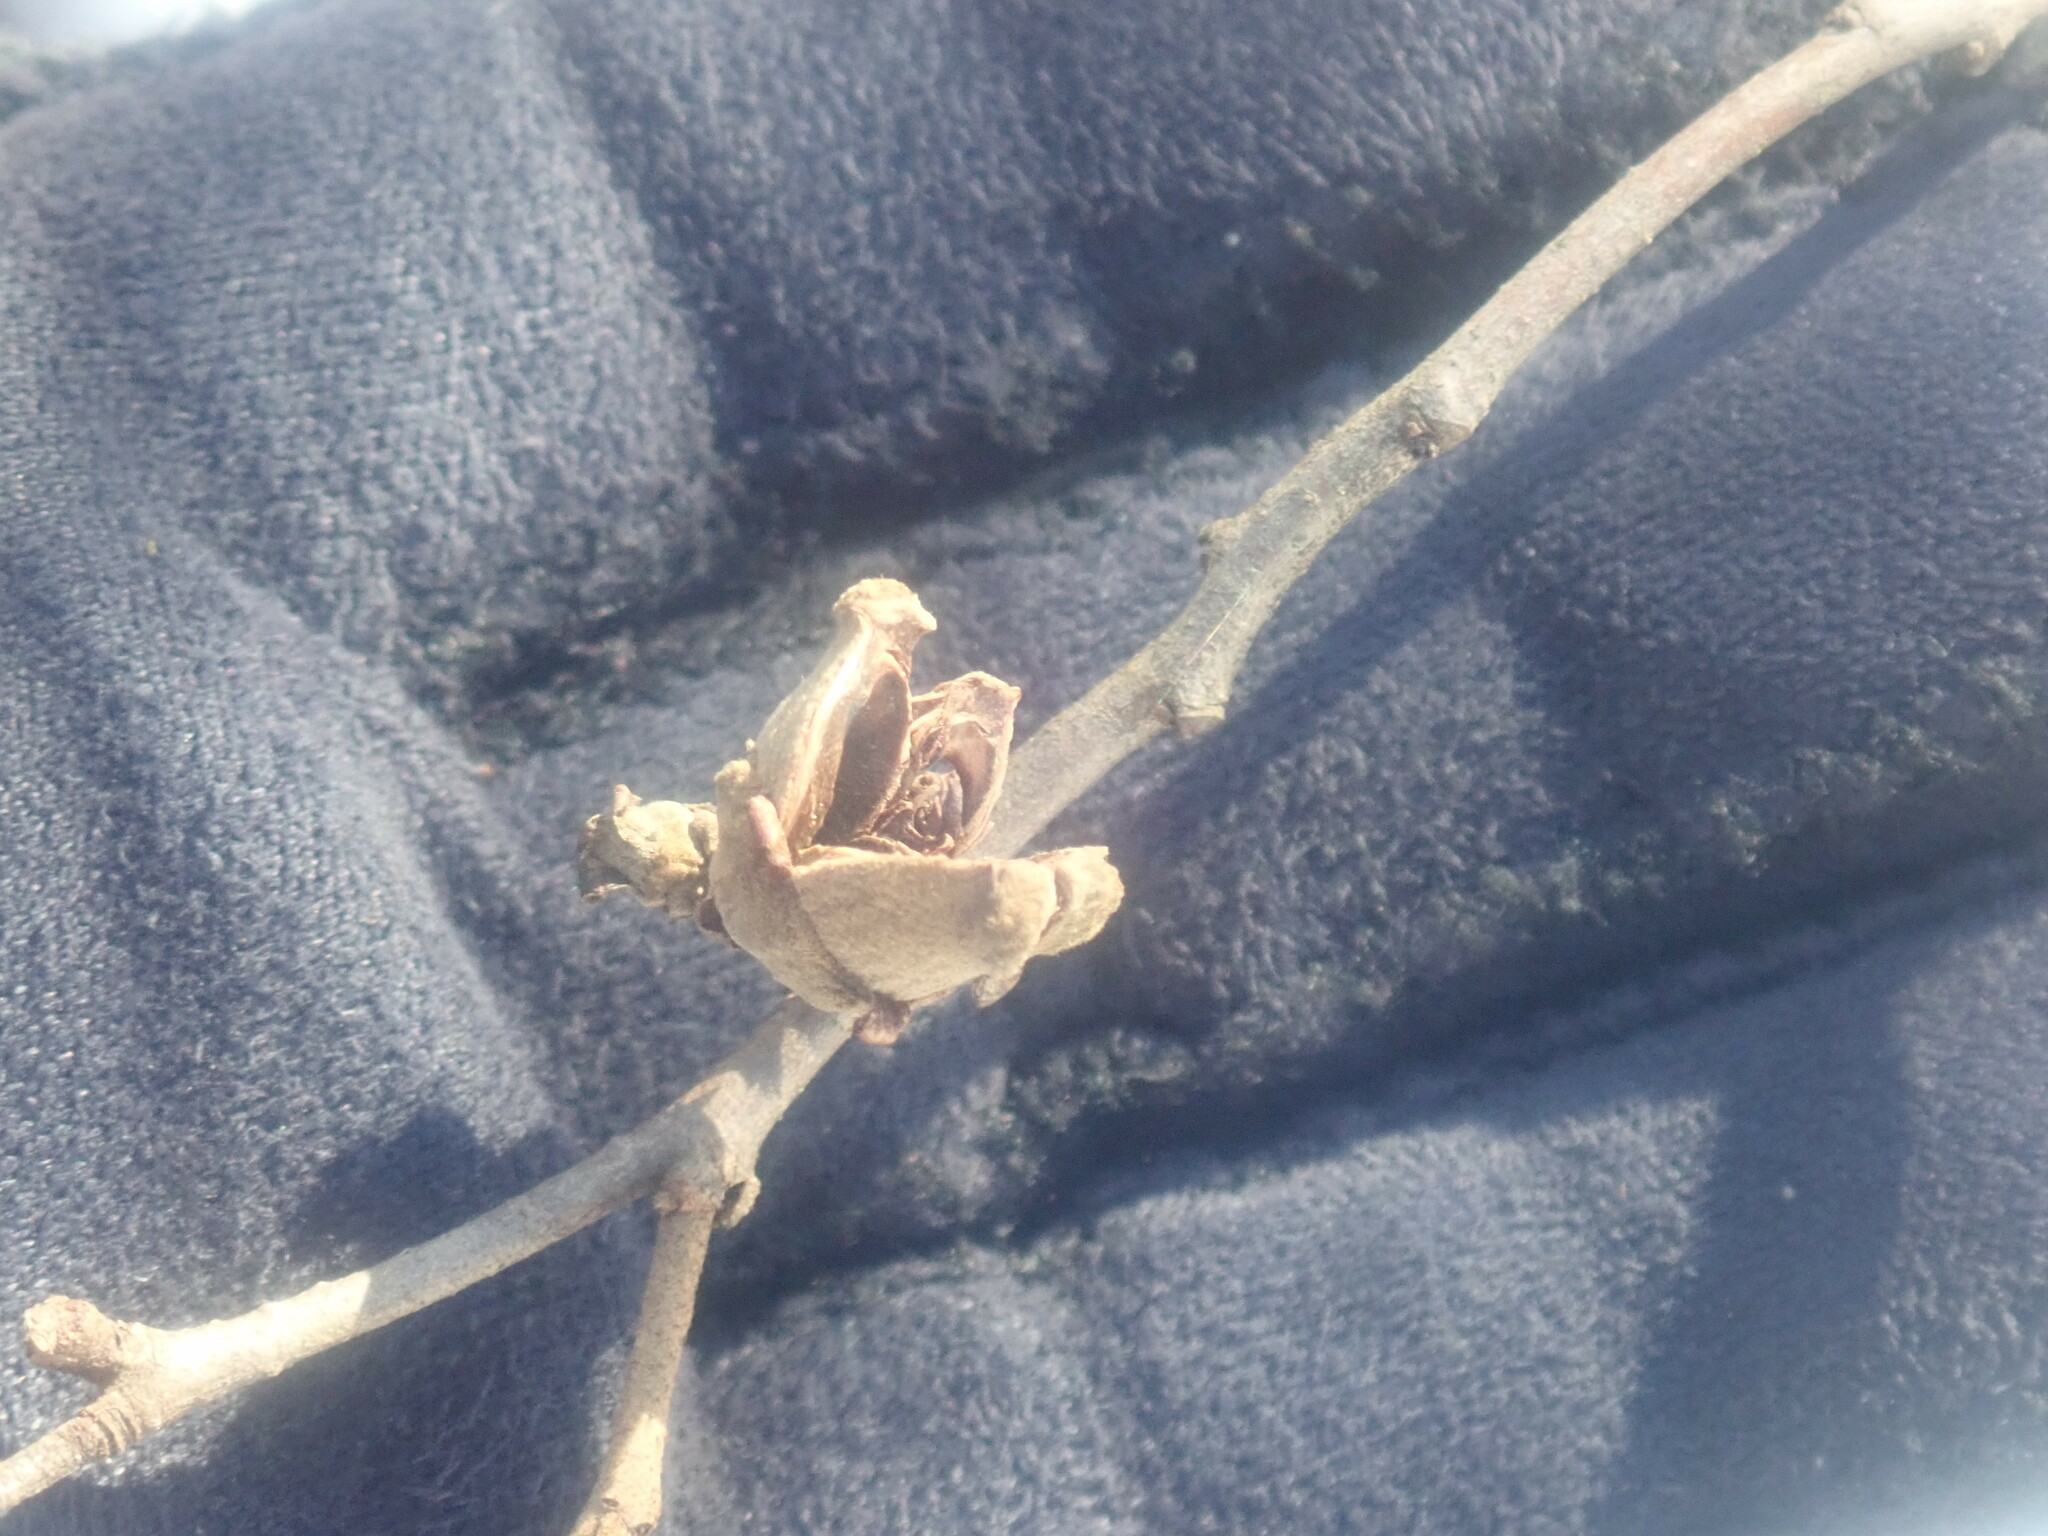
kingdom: Plantae
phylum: Tracheophyta
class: Magnoliopsida
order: Saxifragales
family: Hamamelidaceae
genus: Hamamelis
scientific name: Hamamelis virginiana
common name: Witch-hazel
